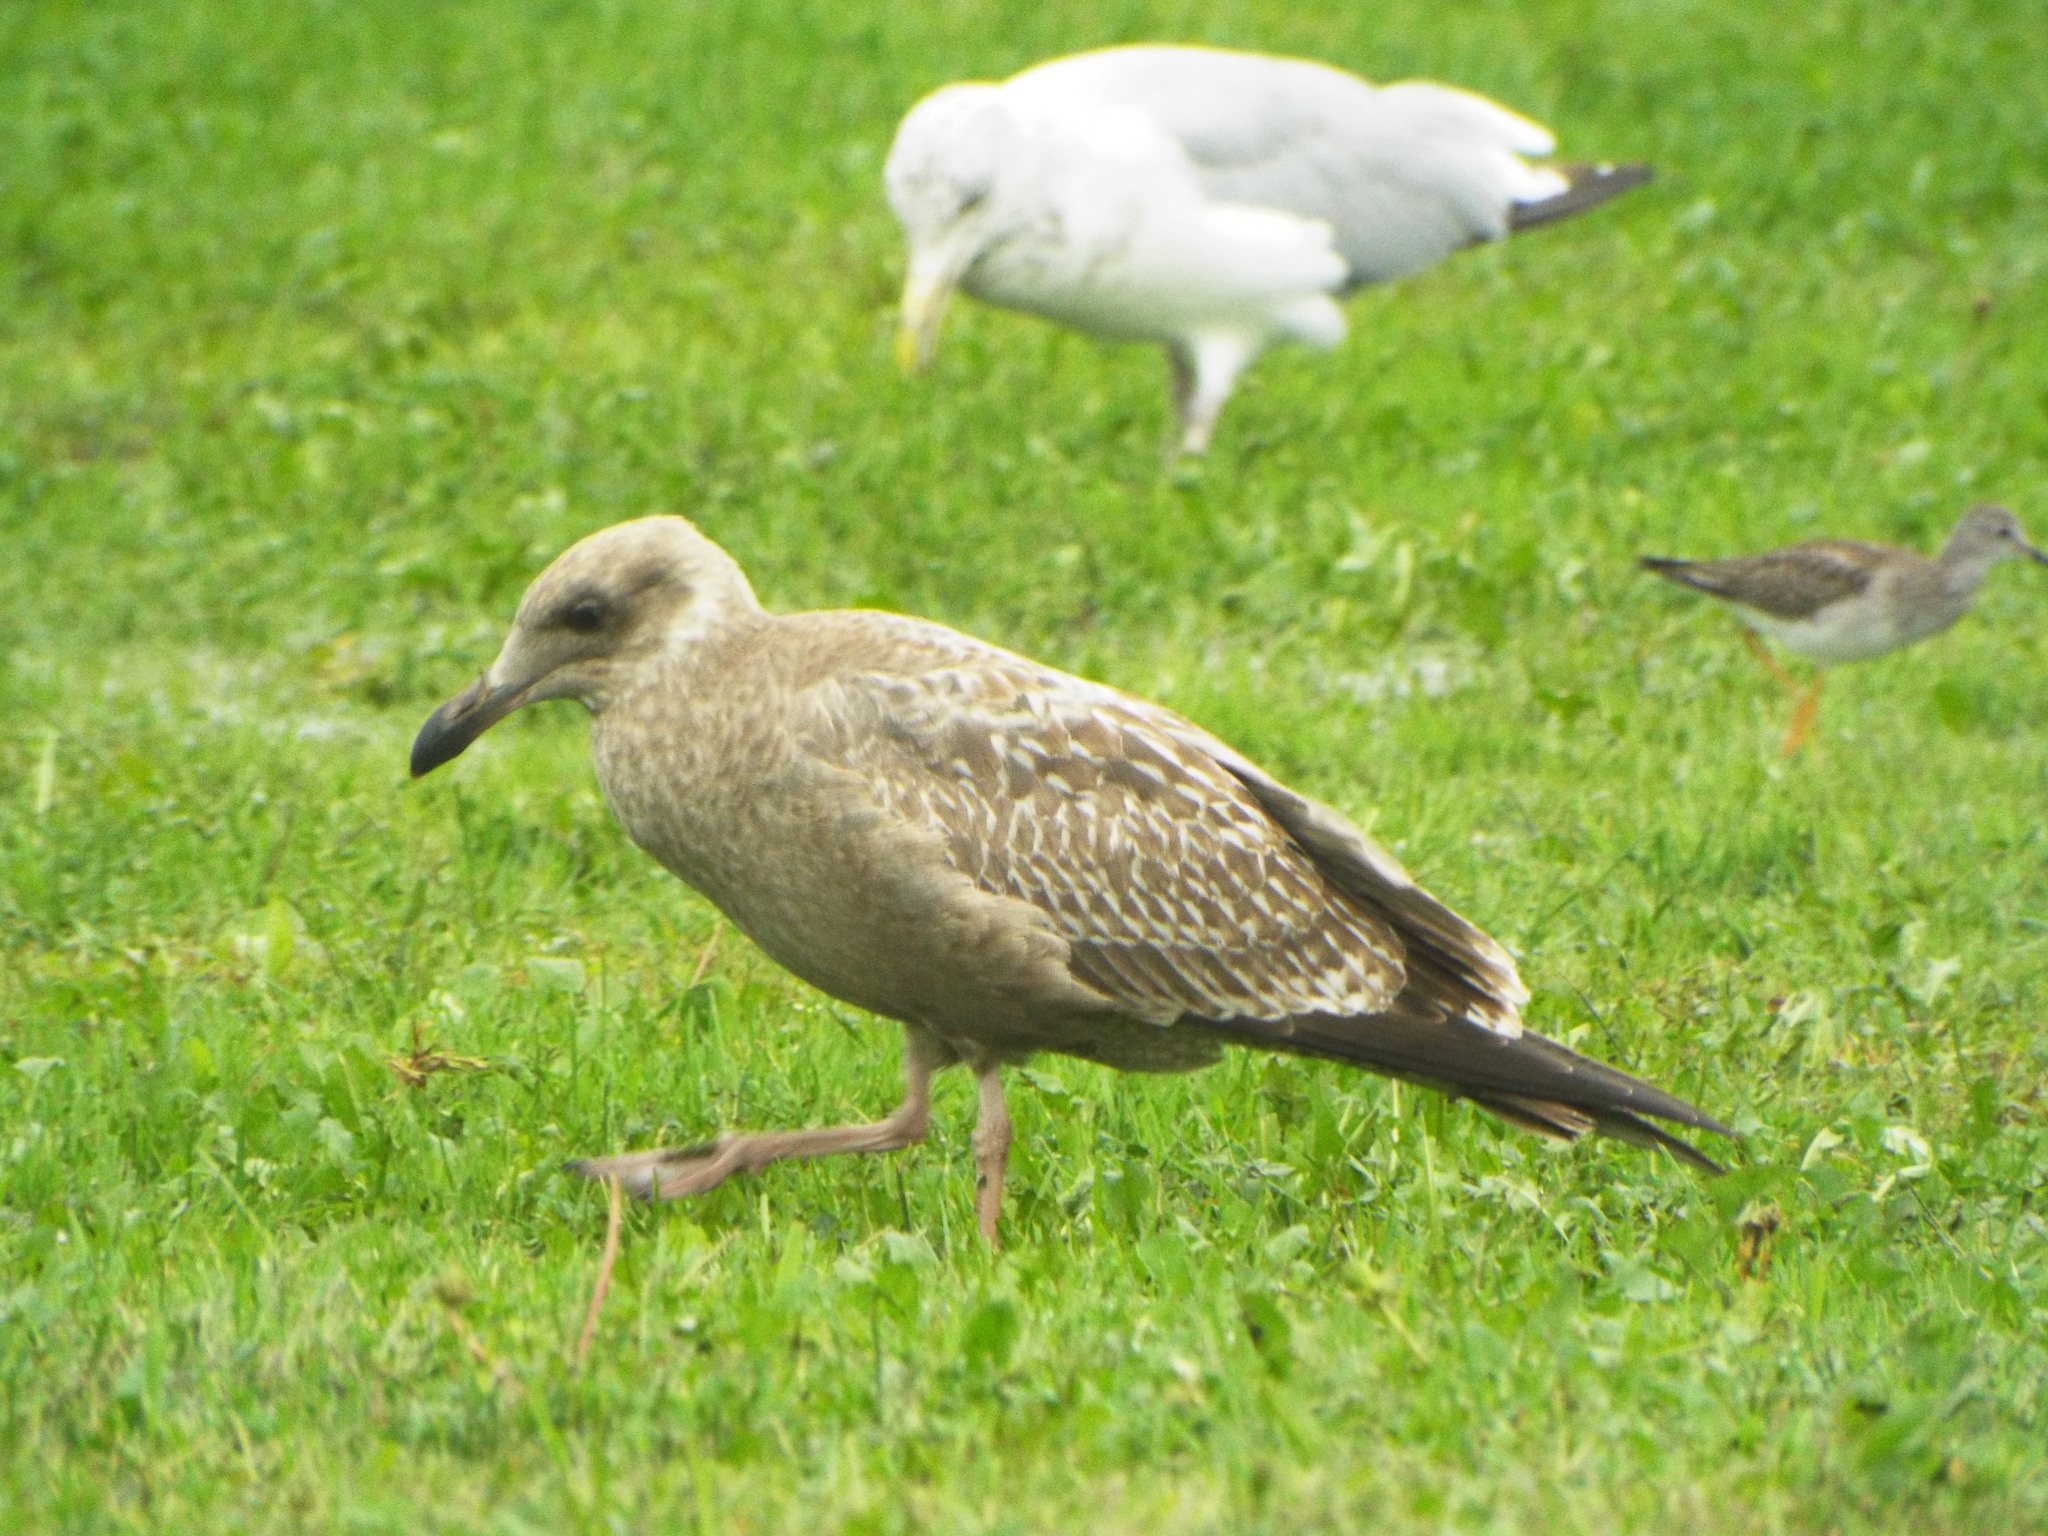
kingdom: Animalia
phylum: Chordata
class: Aves
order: Charadriiformes
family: Laridae
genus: Larus
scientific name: Larus argentatus
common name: Herring gull
